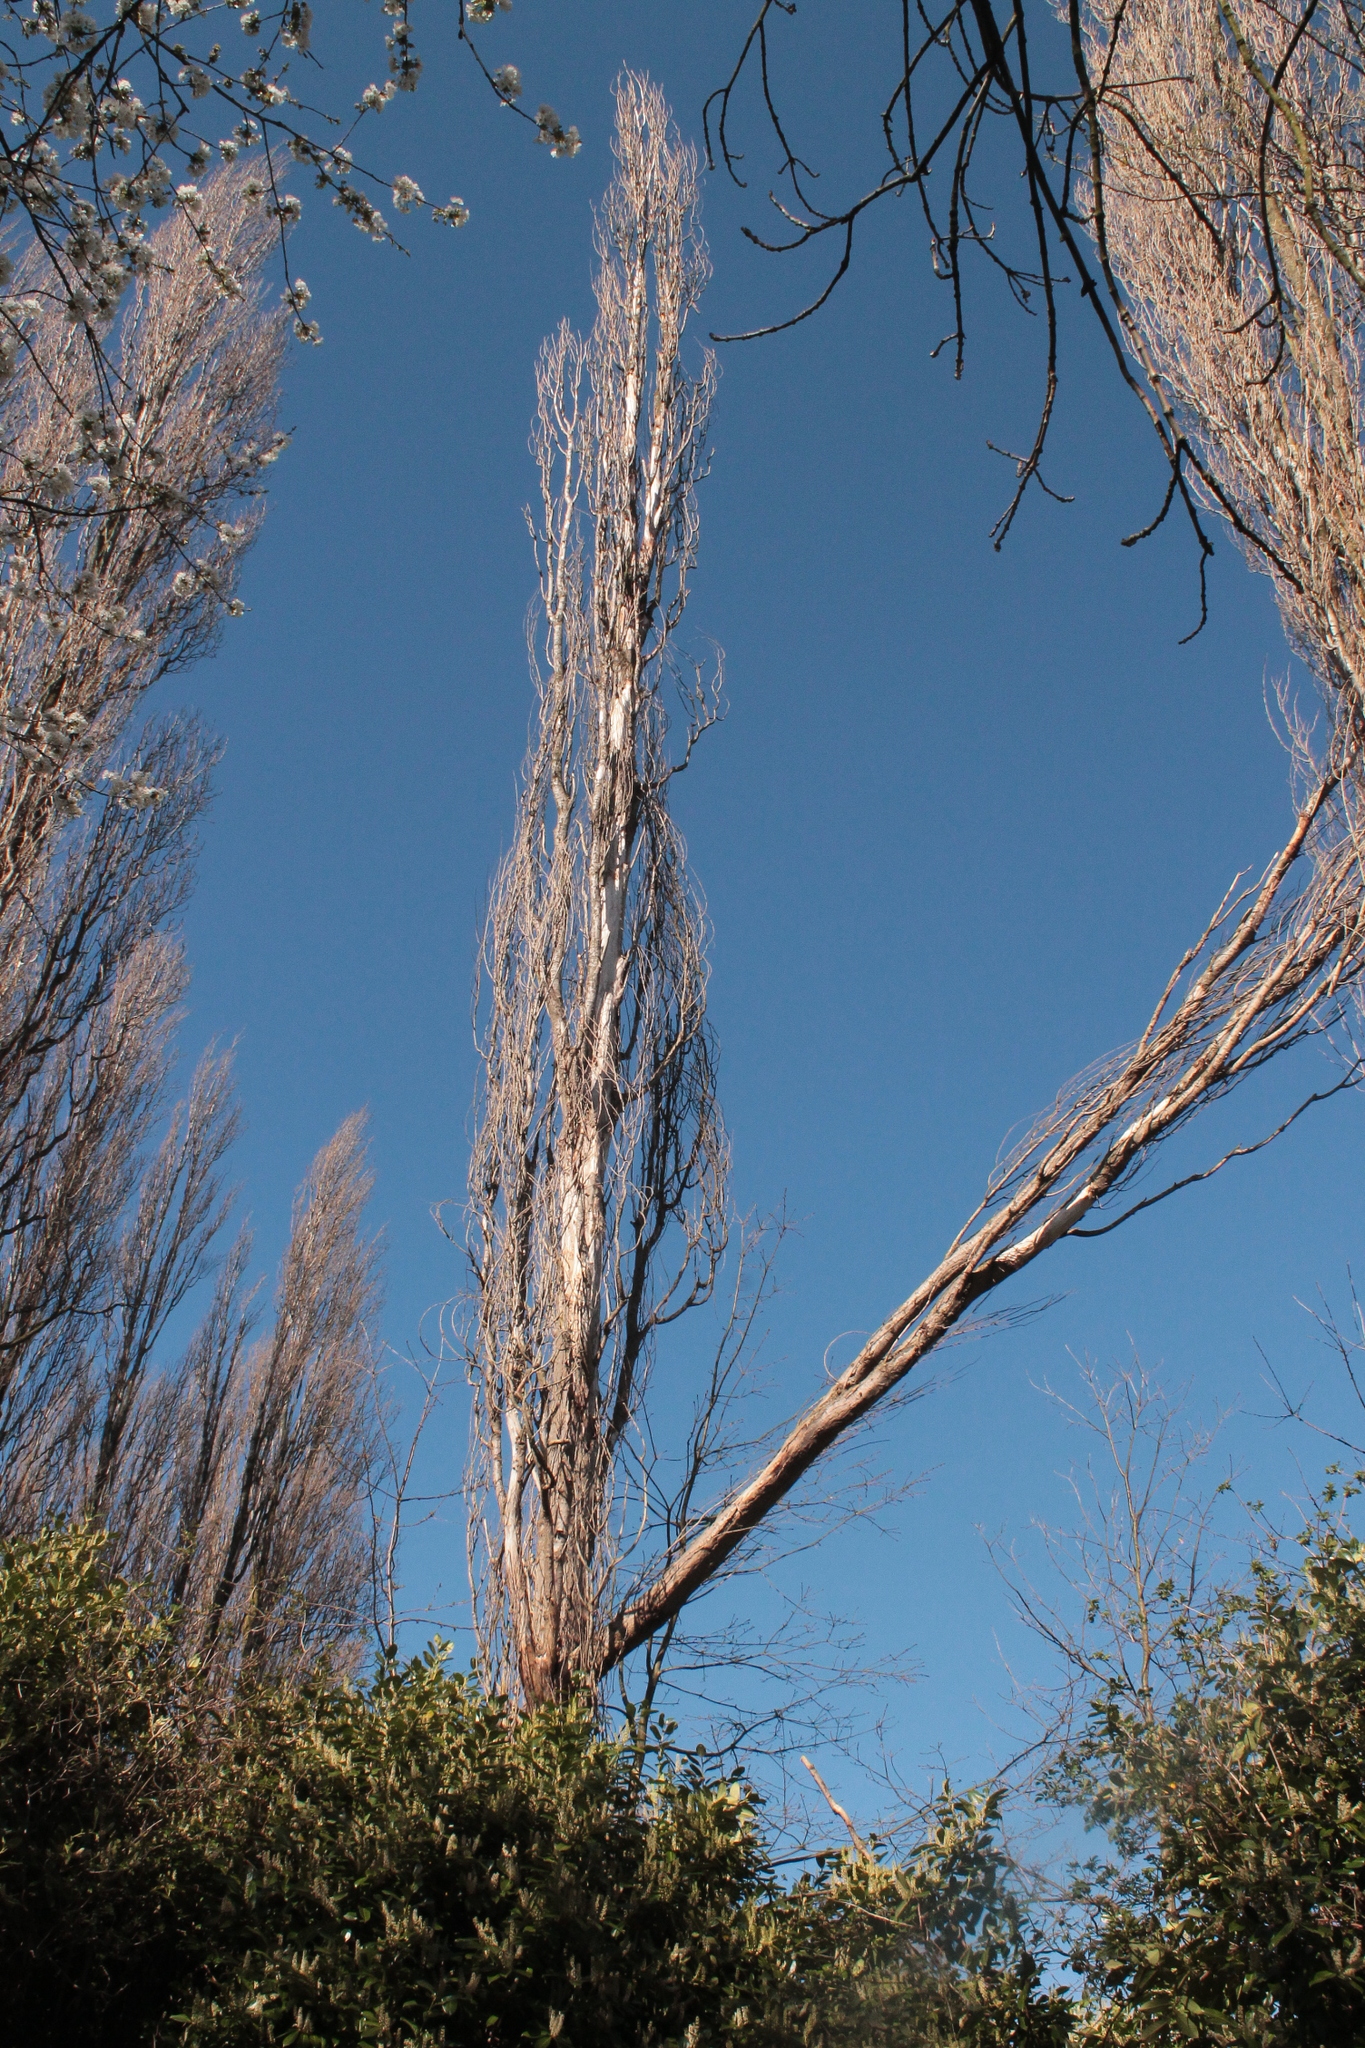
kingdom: Plantae
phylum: Tracheophyta
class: Magnoliopsida
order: Malpighiales
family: Salicaceae
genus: Populus
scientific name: Populus nigra
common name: Black poplar
